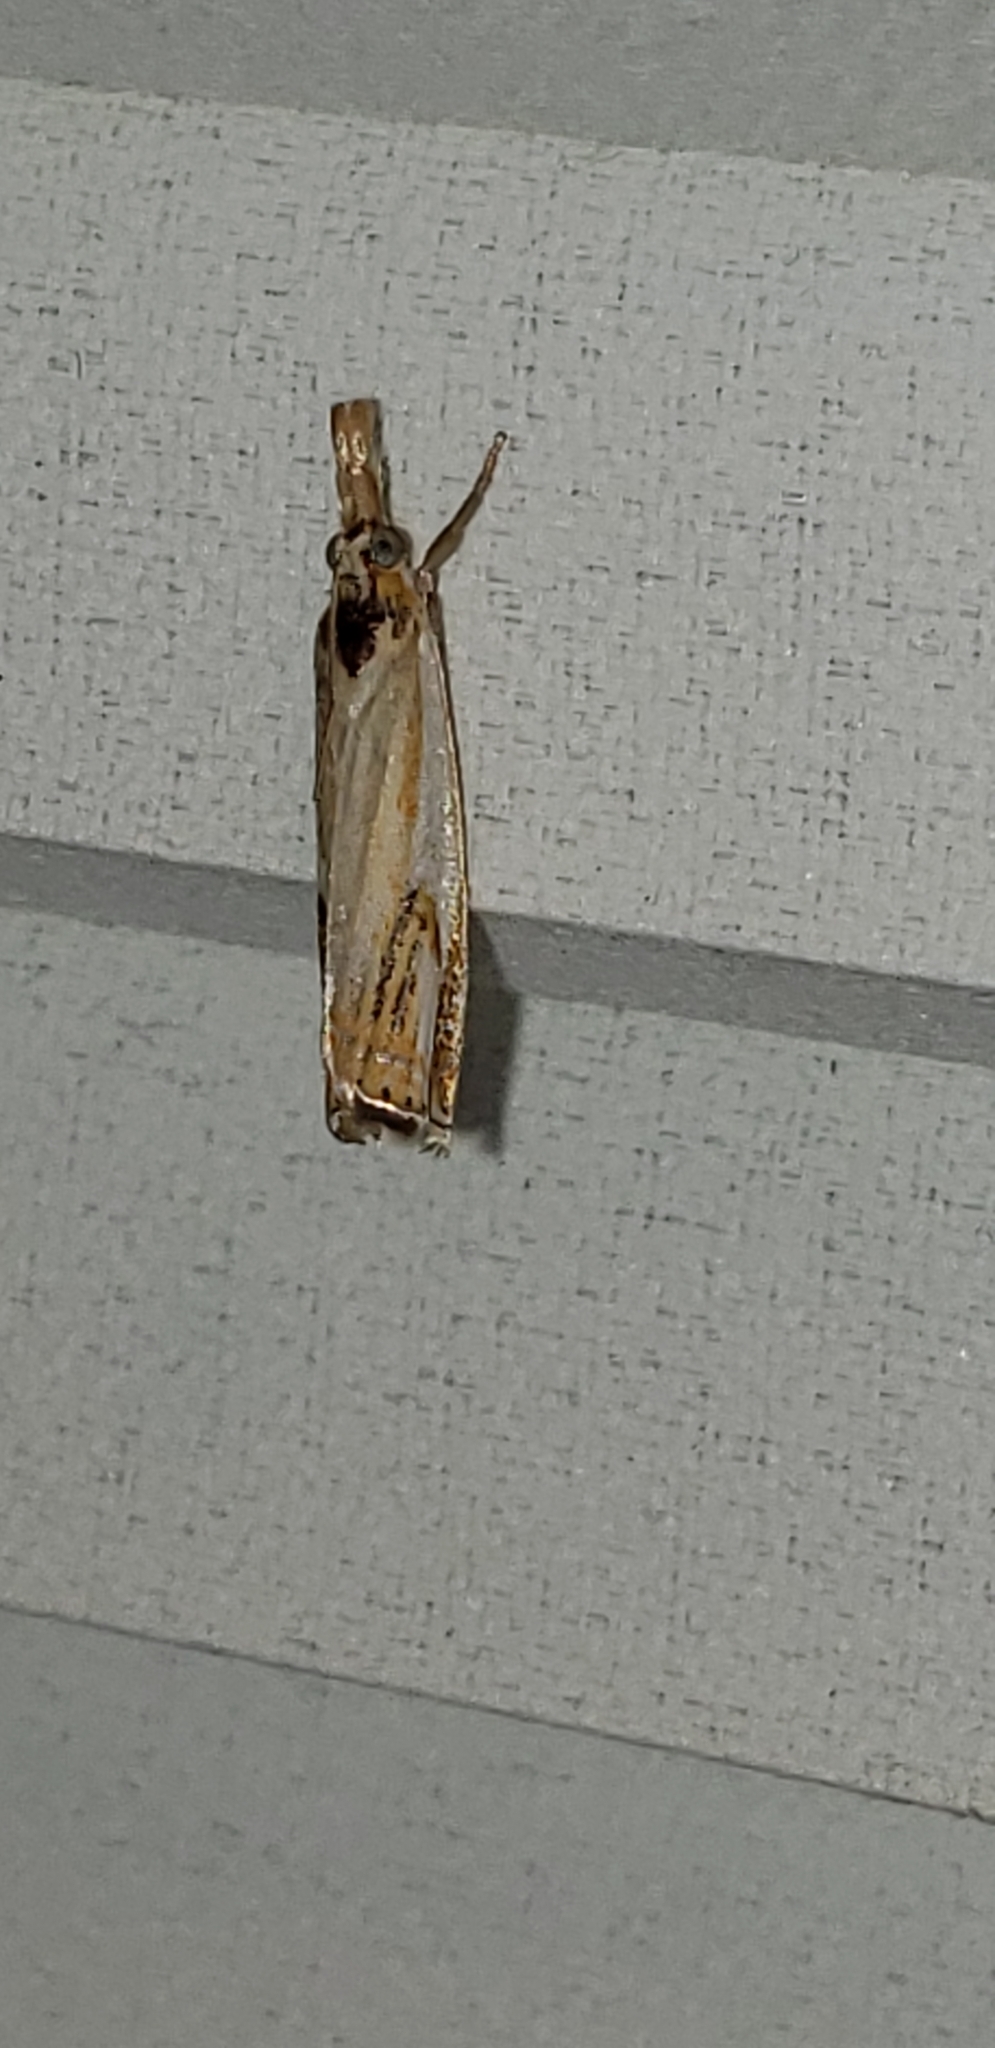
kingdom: Animalia
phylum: Arthropoda
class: Insecta
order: Lepidoptera
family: Crambidae
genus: Crambus
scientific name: Crambus agitatellus
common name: Double-banded grass-veneer
